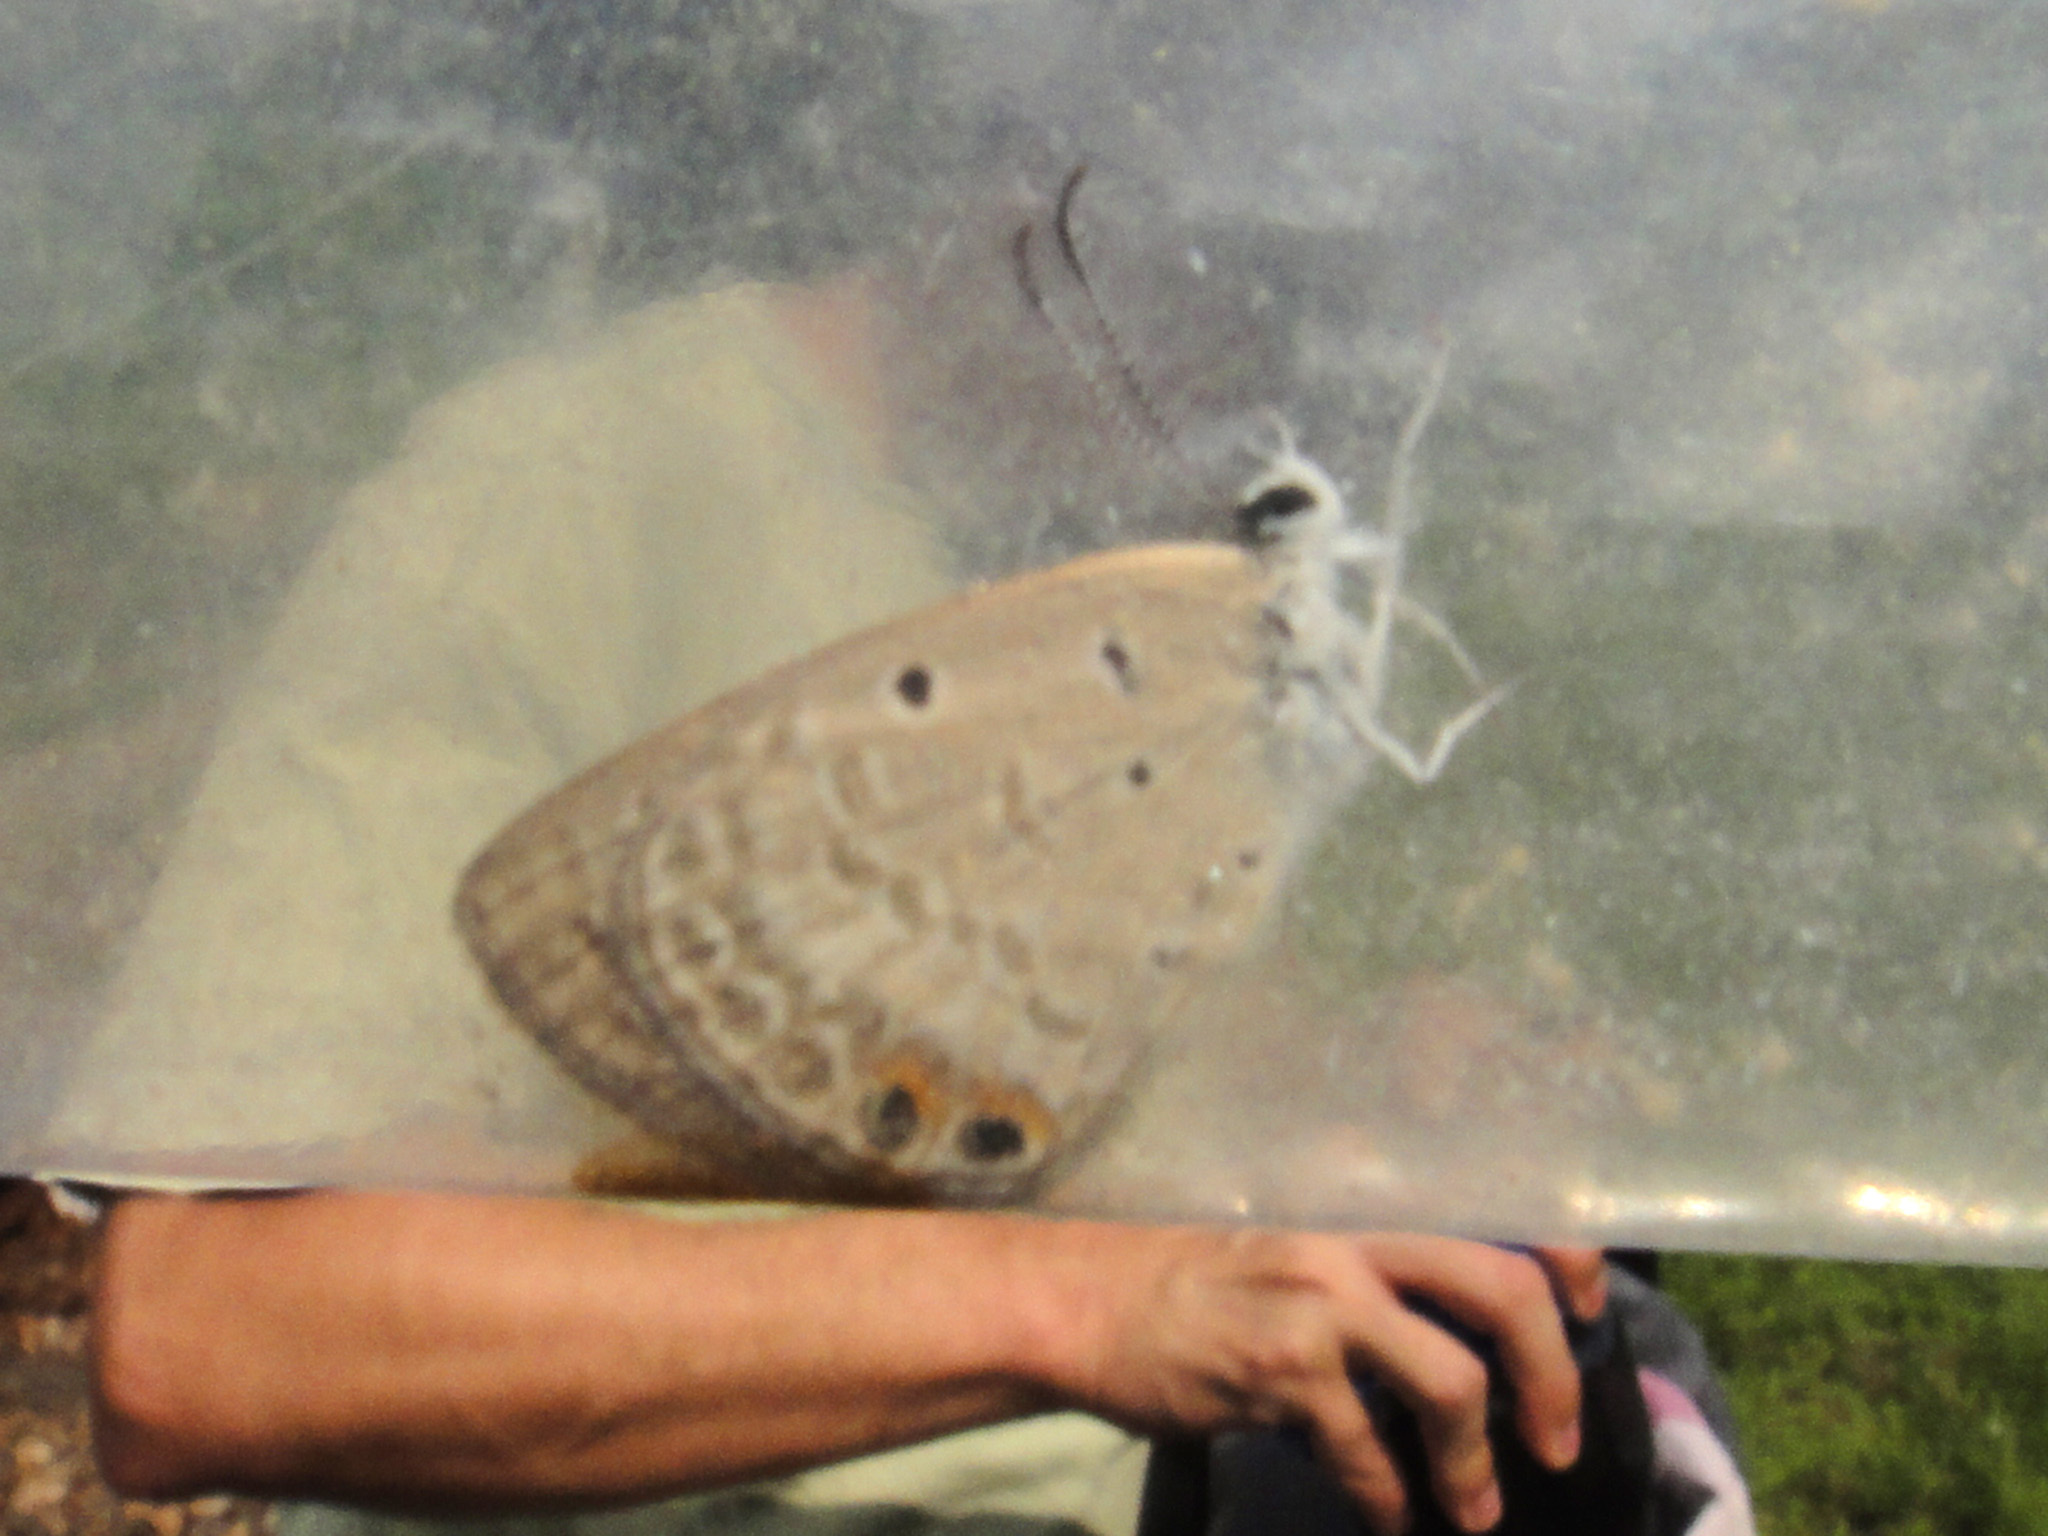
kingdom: Animalia
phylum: Arthropoda
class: Insecta
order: Lepidoptera
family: Lycaenidae
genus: Euchrysops
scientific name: Euchrysops cnejus
